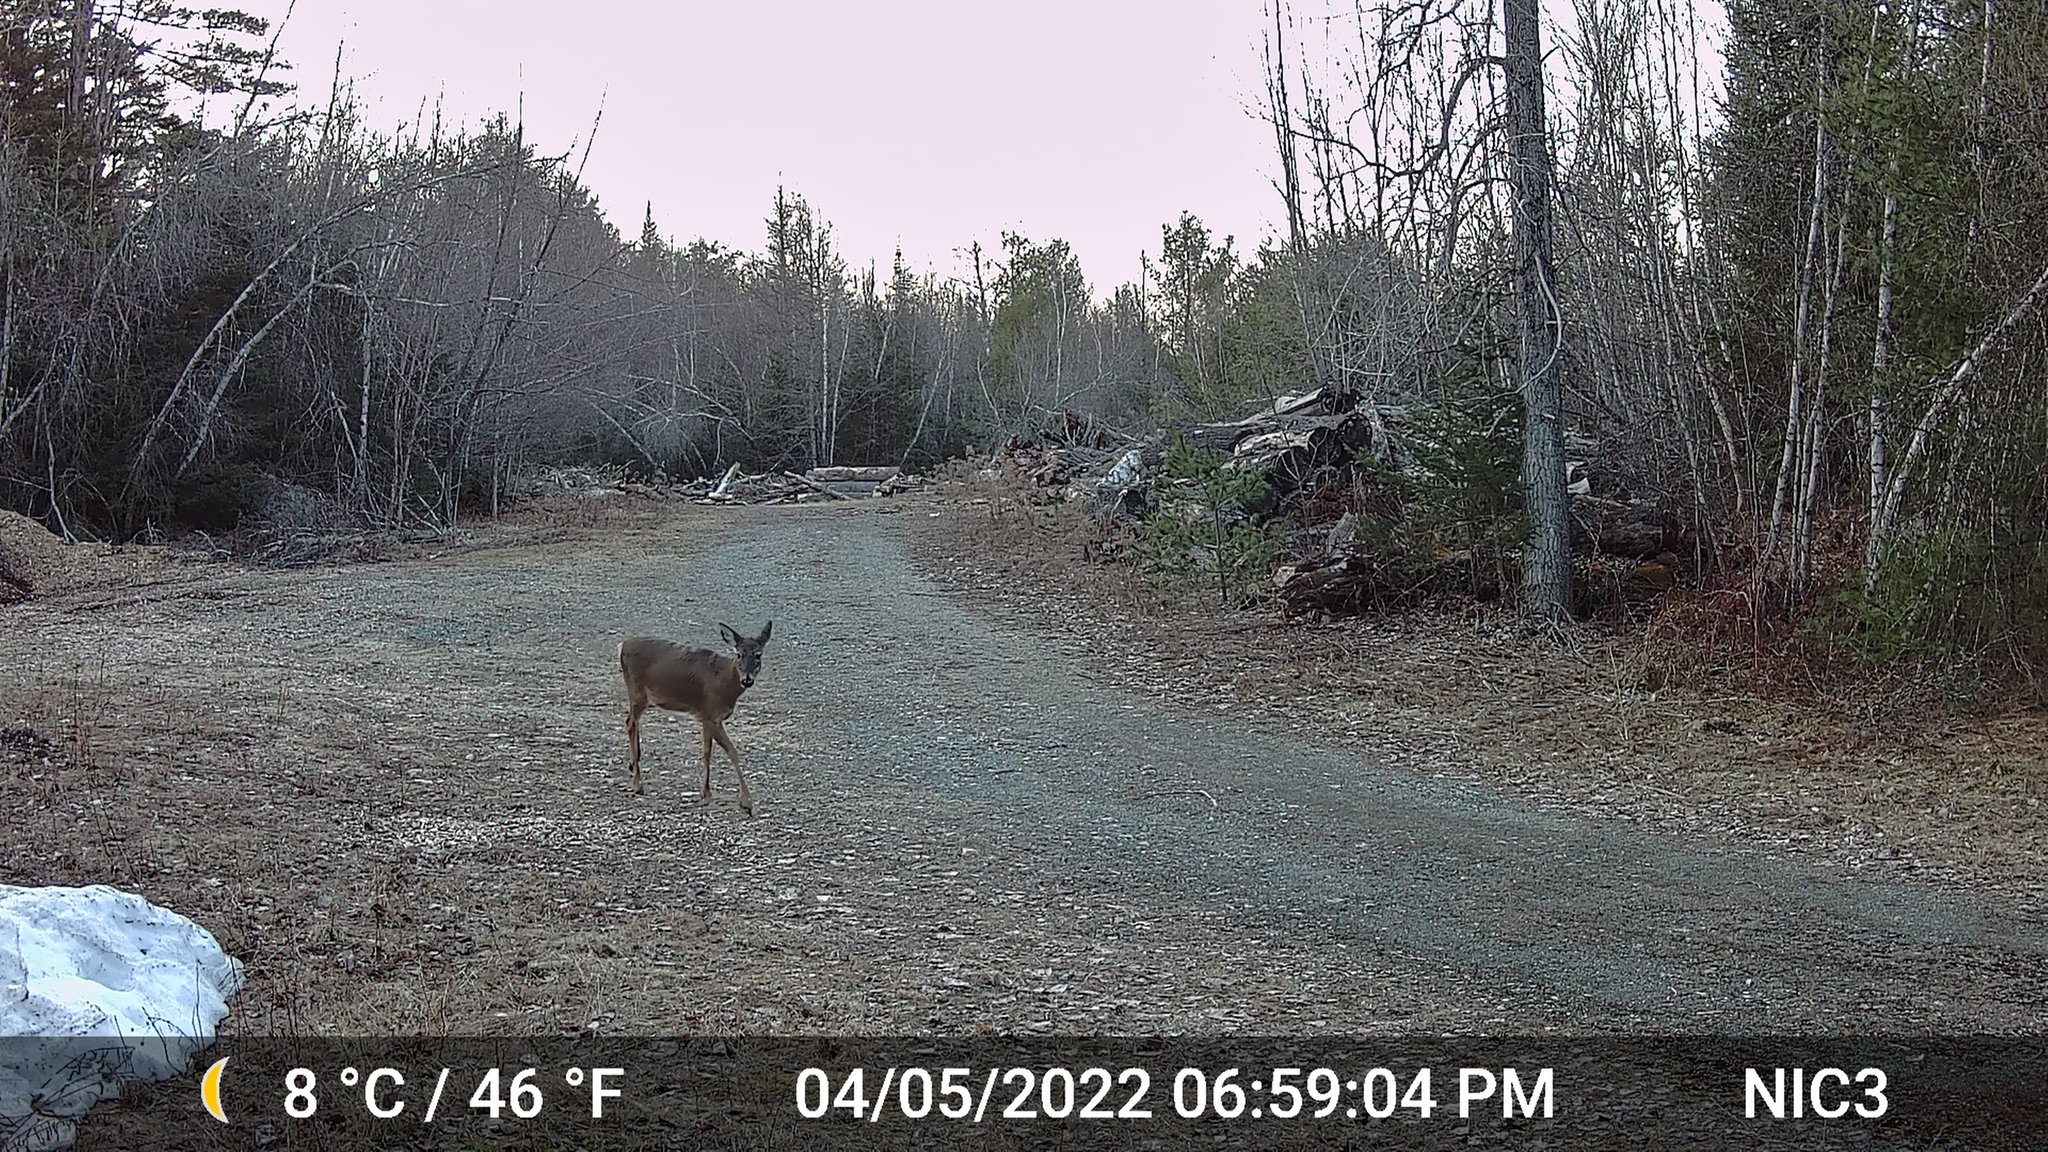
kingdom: Animalia
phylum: Chordata
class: Mammalia
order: Artiodactyla
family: Cervidae
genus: Odocoileus
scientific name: Odocoileus virginianus
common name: White-tailed deer
